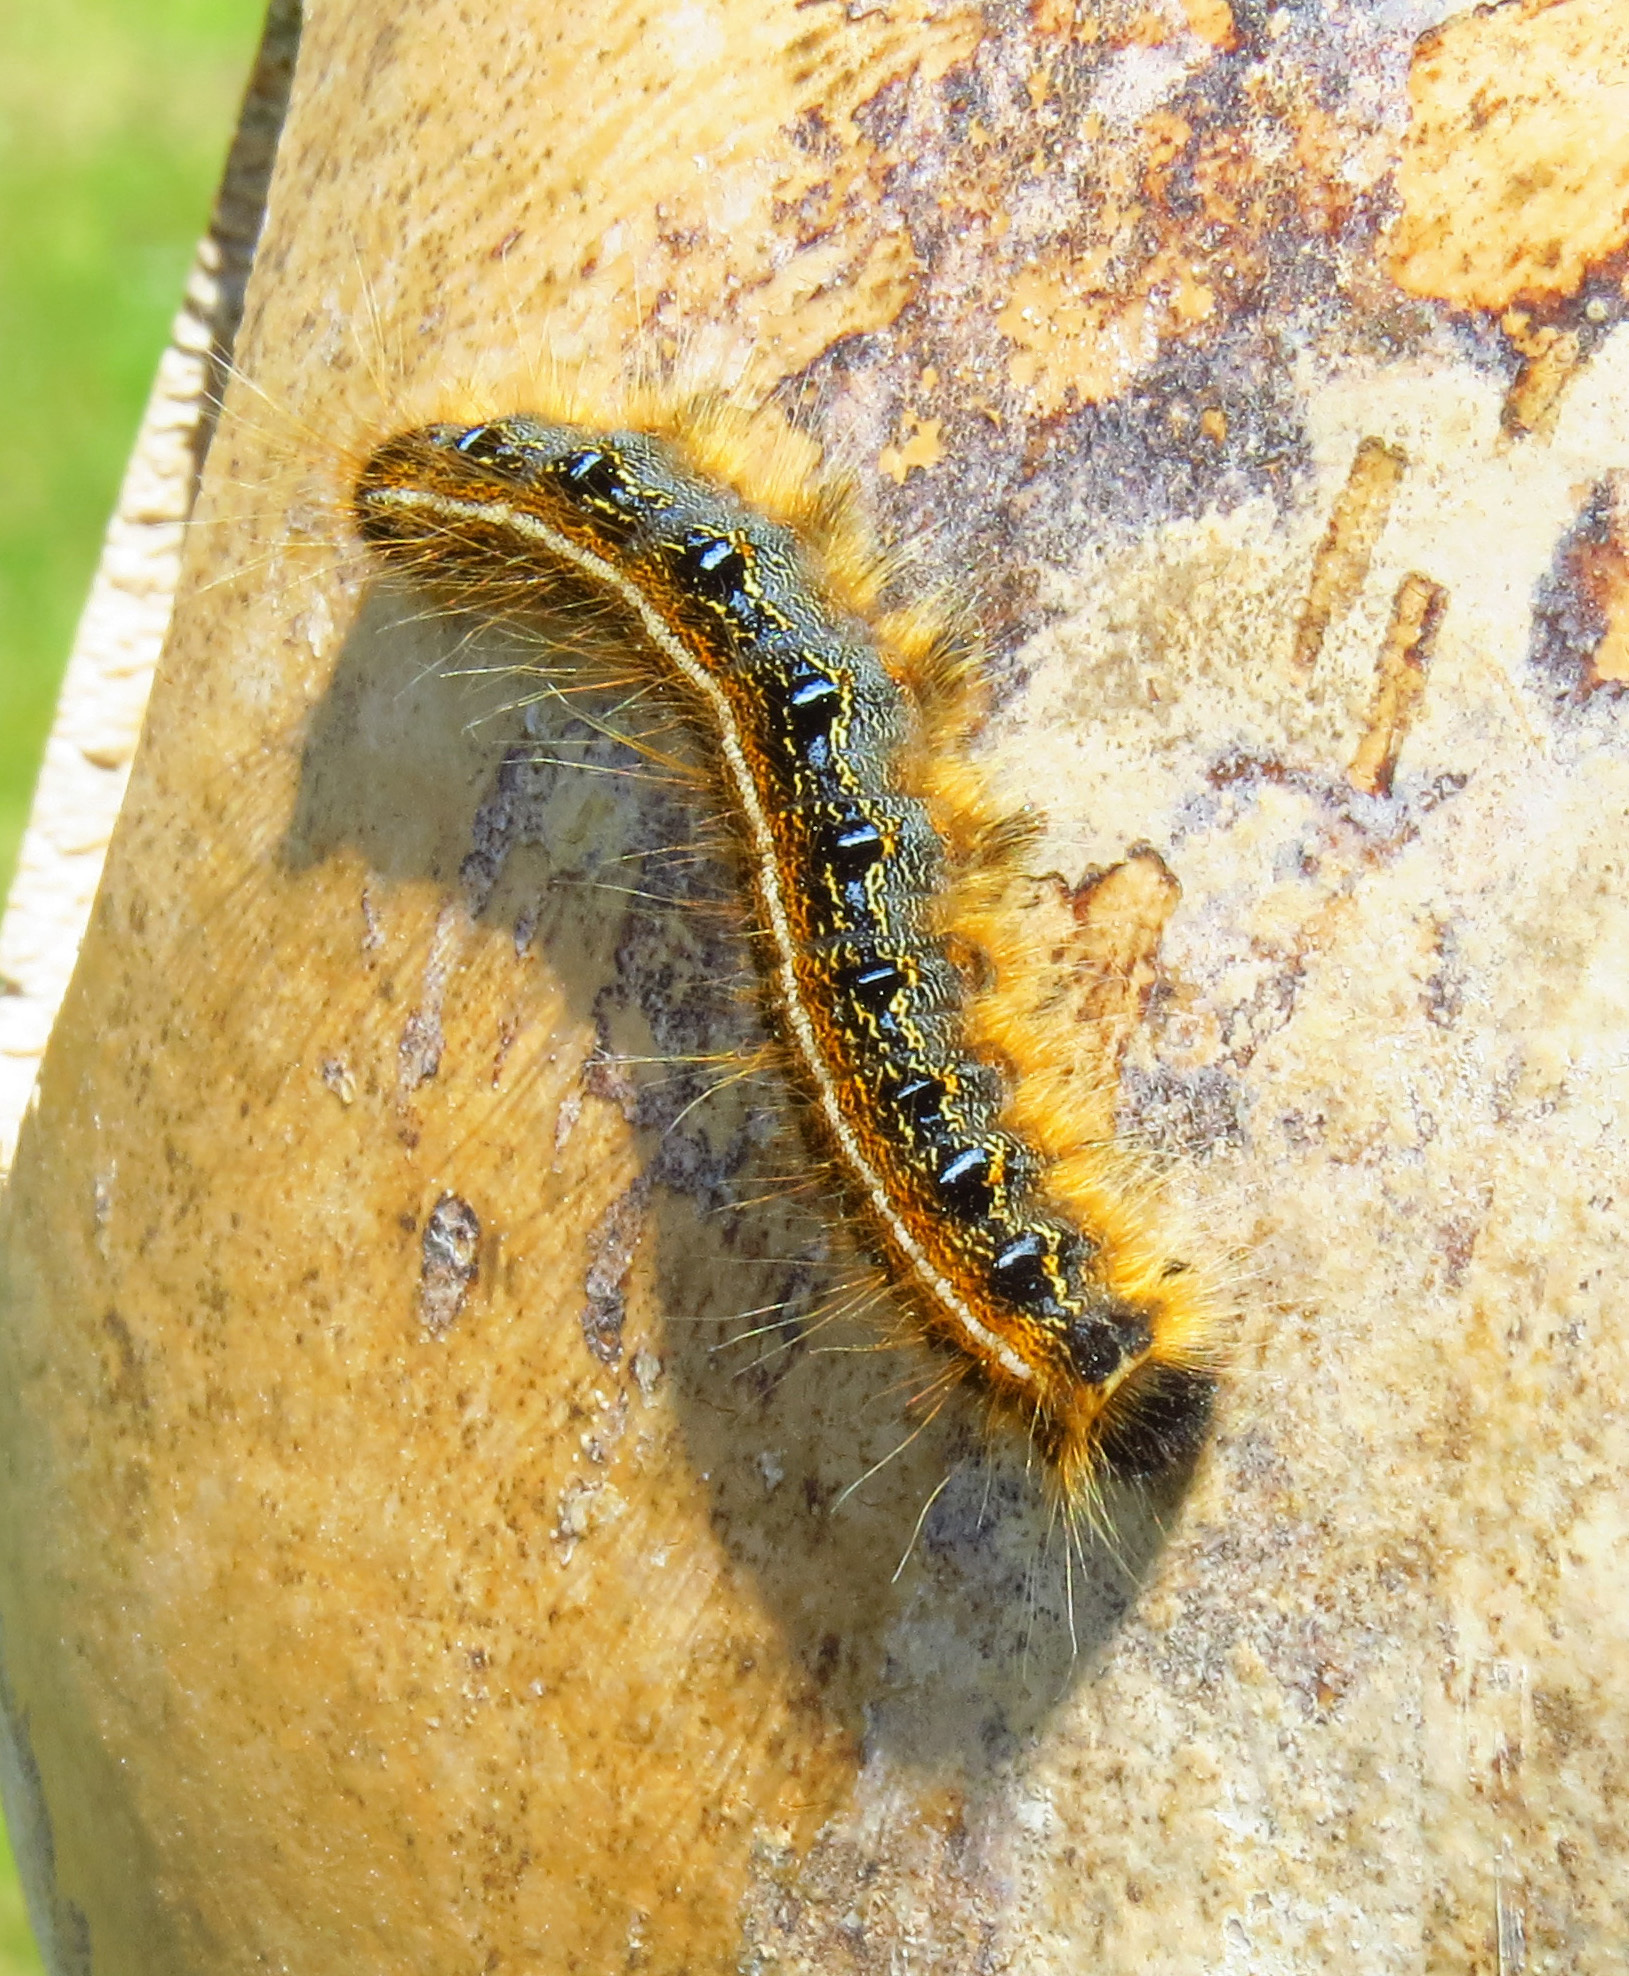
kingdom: Animalia
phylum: Arthropoda
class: Insecta
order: Lepidoptera
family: Lasiocampidae
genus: Malacosoma
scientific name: Malacosoma americana
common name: Eastern tent caterpillar moth
